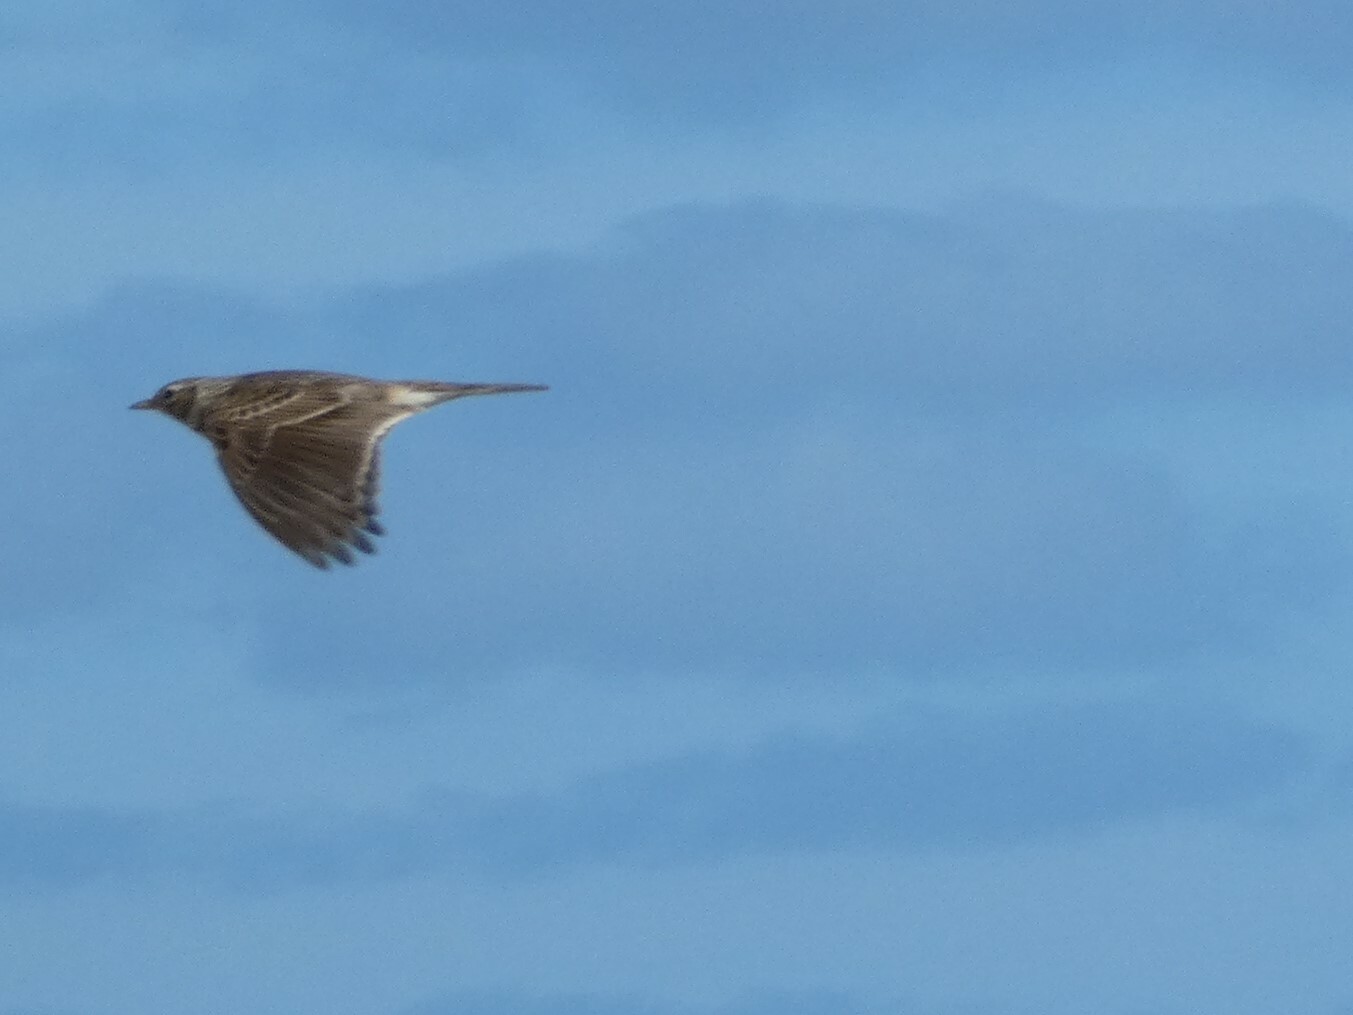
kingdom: Animalia
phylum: Chordata
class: Aves
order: Passeriformes
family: Alaudidae
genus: Alauda
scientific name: Alauda arvensis
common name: Eurasian skylark
